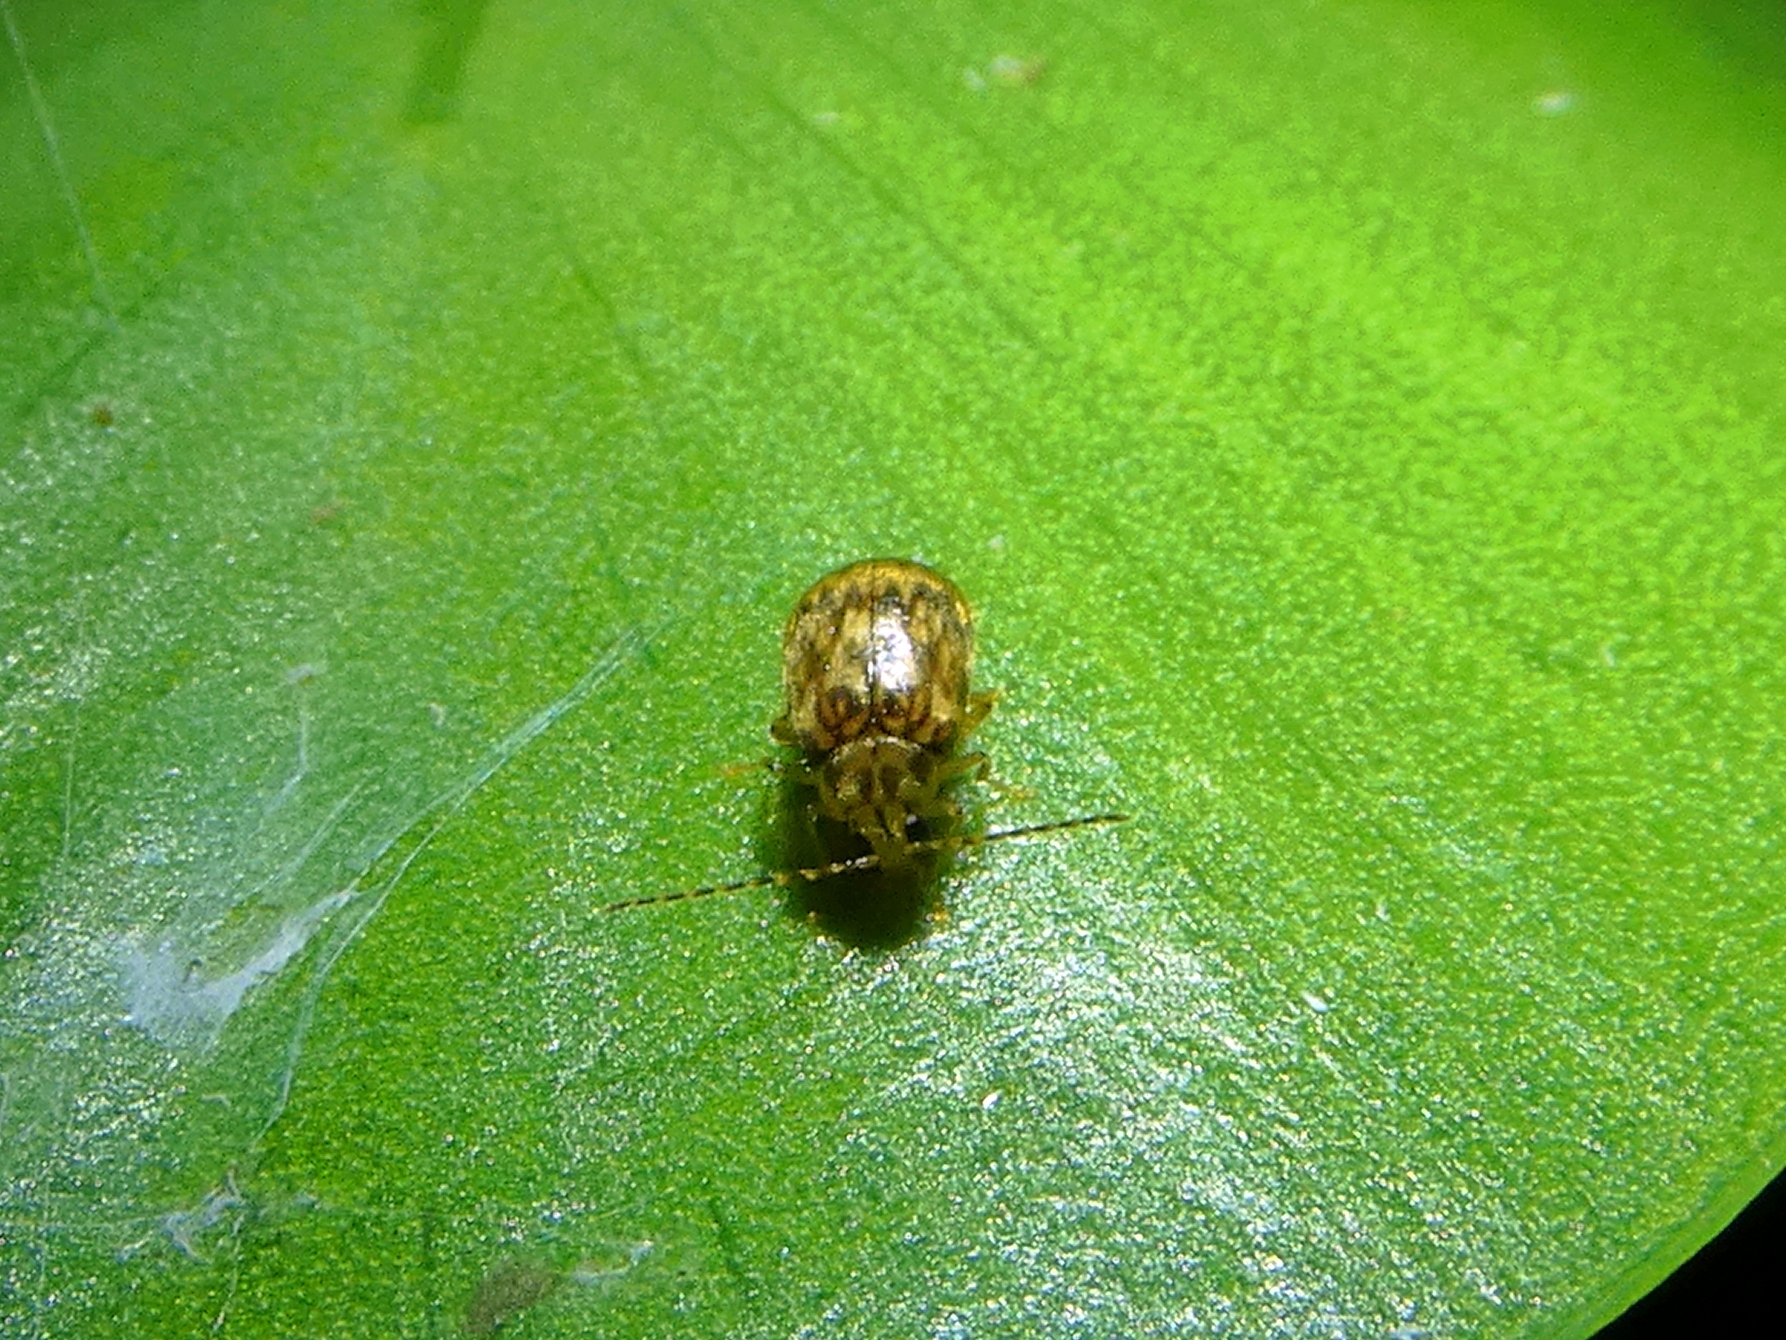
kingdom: Animalia
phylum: Arthropoda
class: Insecta
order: Coleoptera
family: Chrysomelidae
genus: Candezea
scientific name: Candezea
